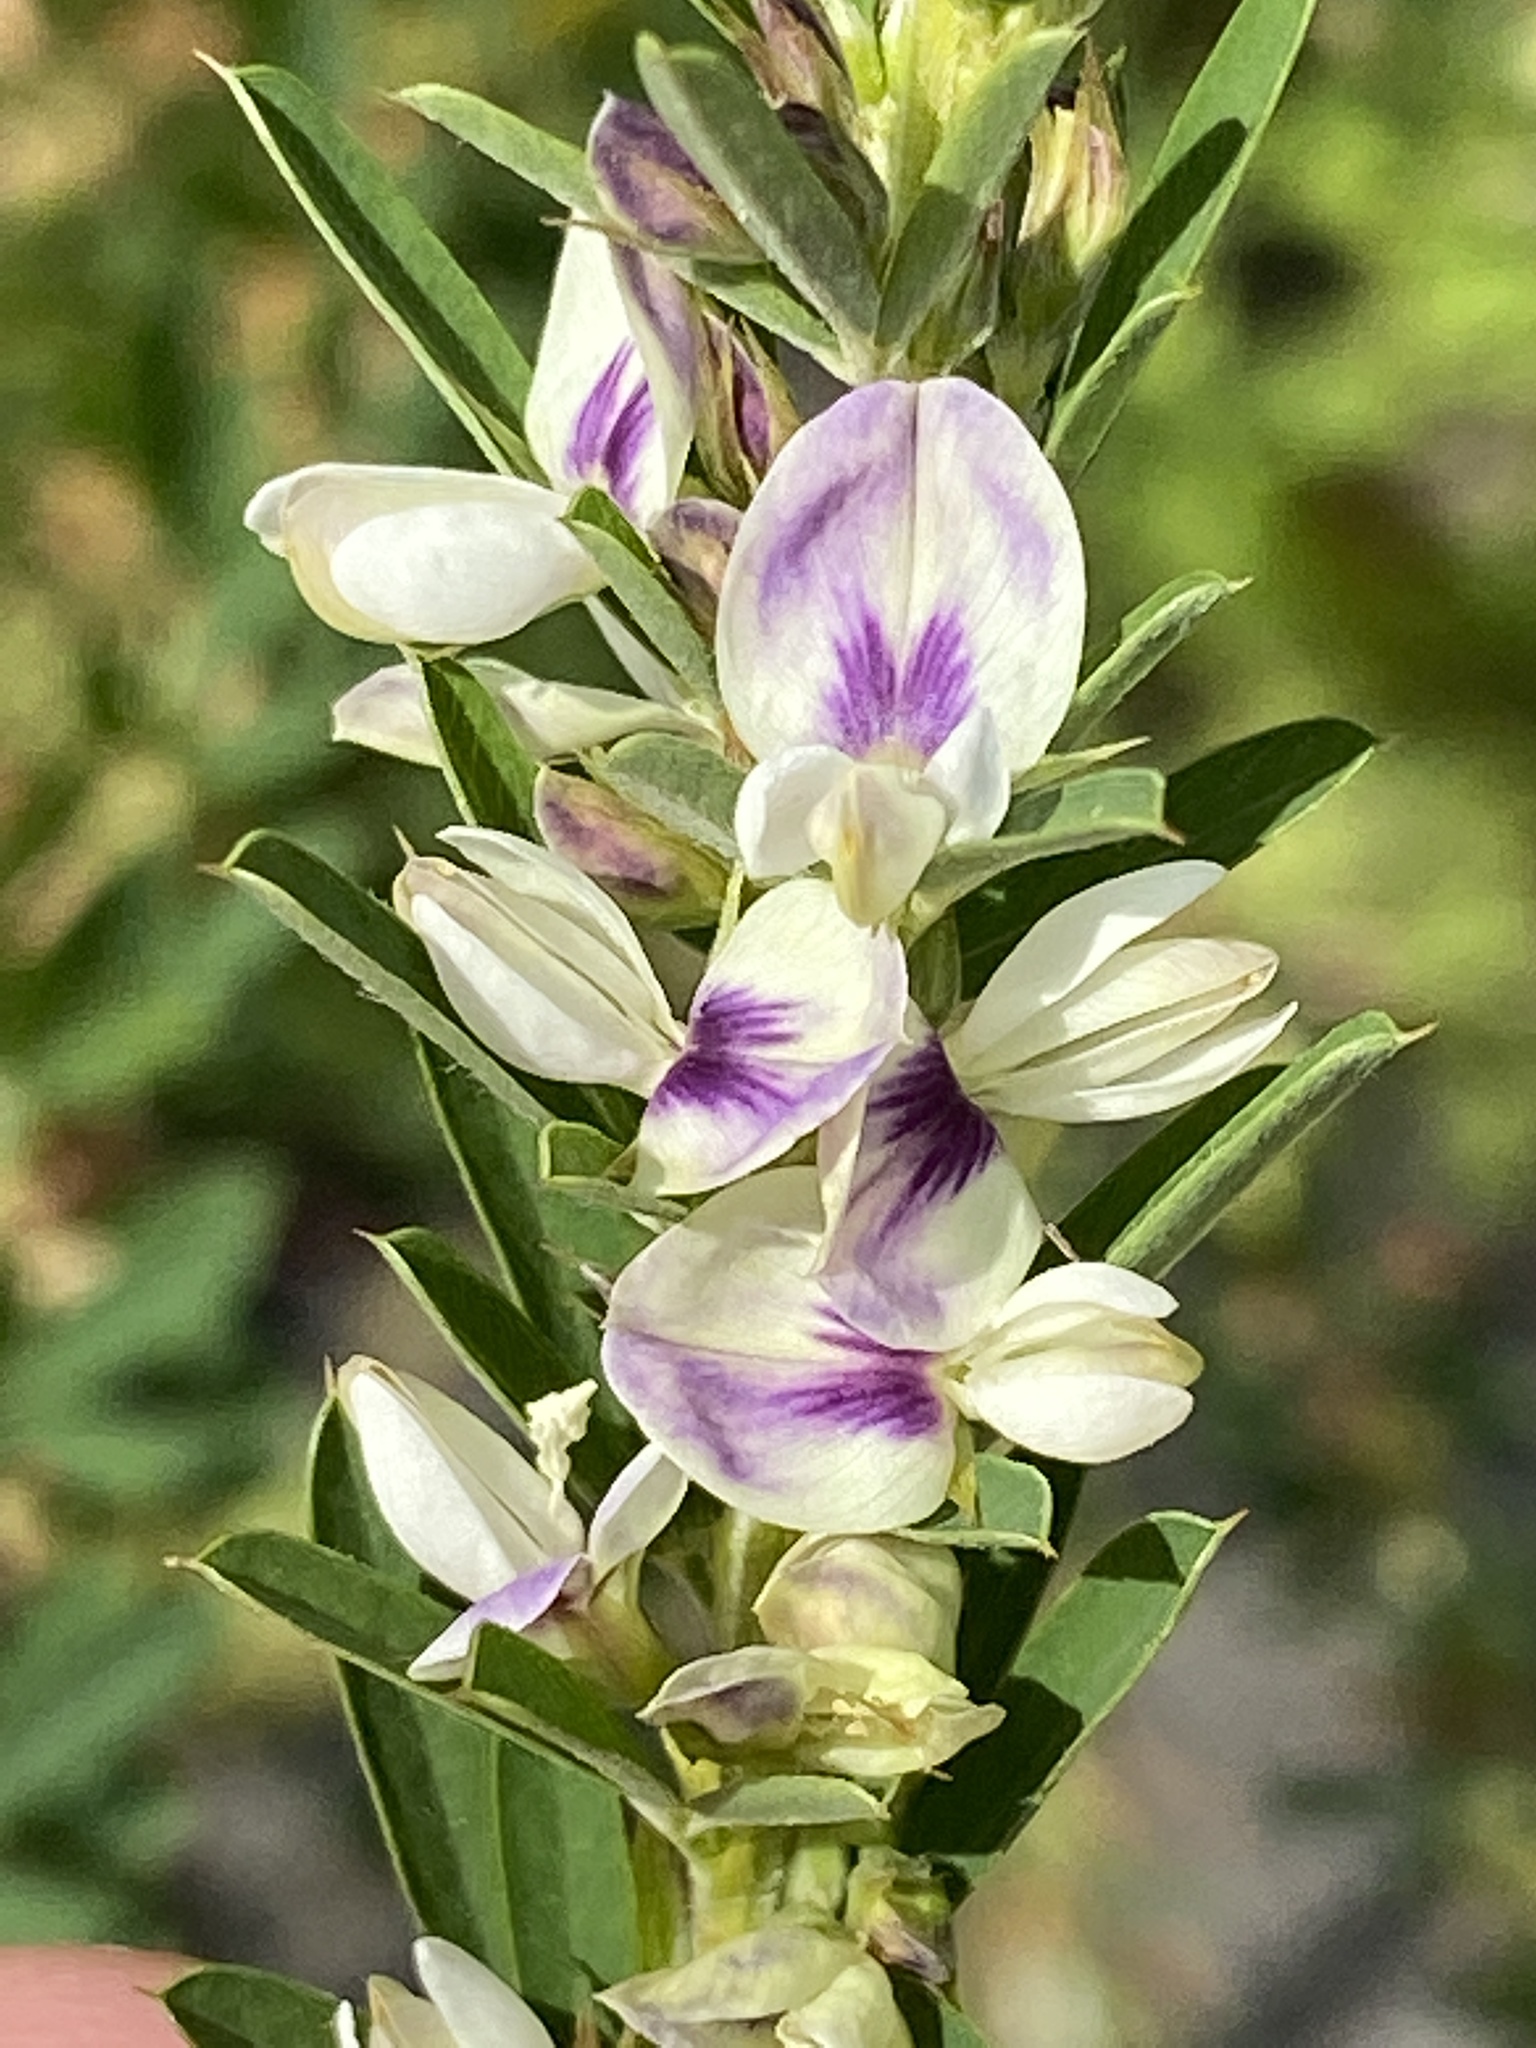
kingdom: Plantae
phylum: Tracheophyta
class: Magnoliopsida
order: Fabales
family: Fabaceae
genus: Lespedeza
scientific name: Lespedeza cuneata
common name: Chinese bush-clover
